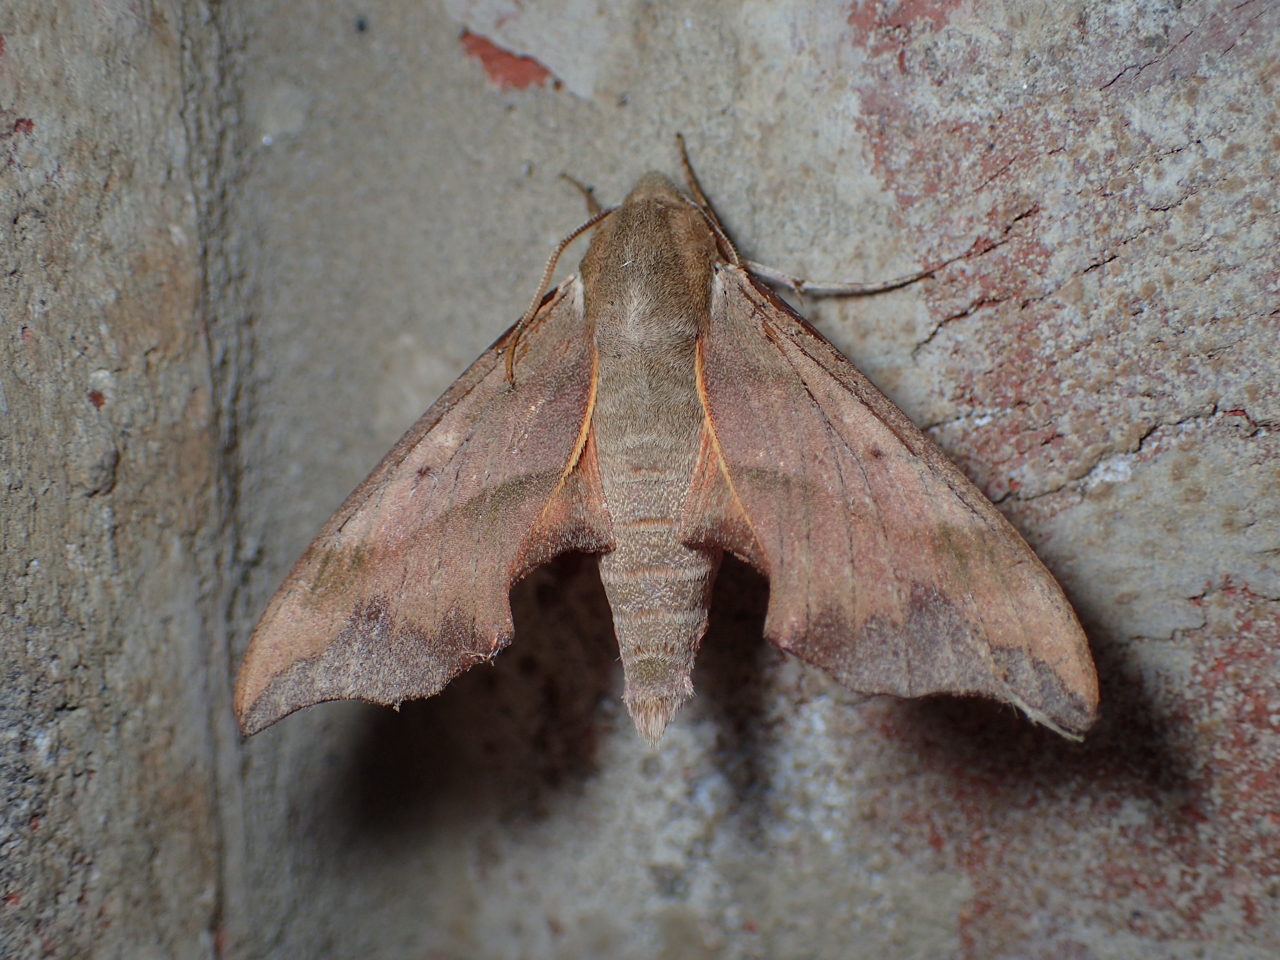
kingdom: Animalia
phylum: Arthropoda
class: Insecta
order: Lepidoptera
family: Sphingidae
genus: Darapsa
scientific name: Darapsa myron
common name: Hog sphinx
